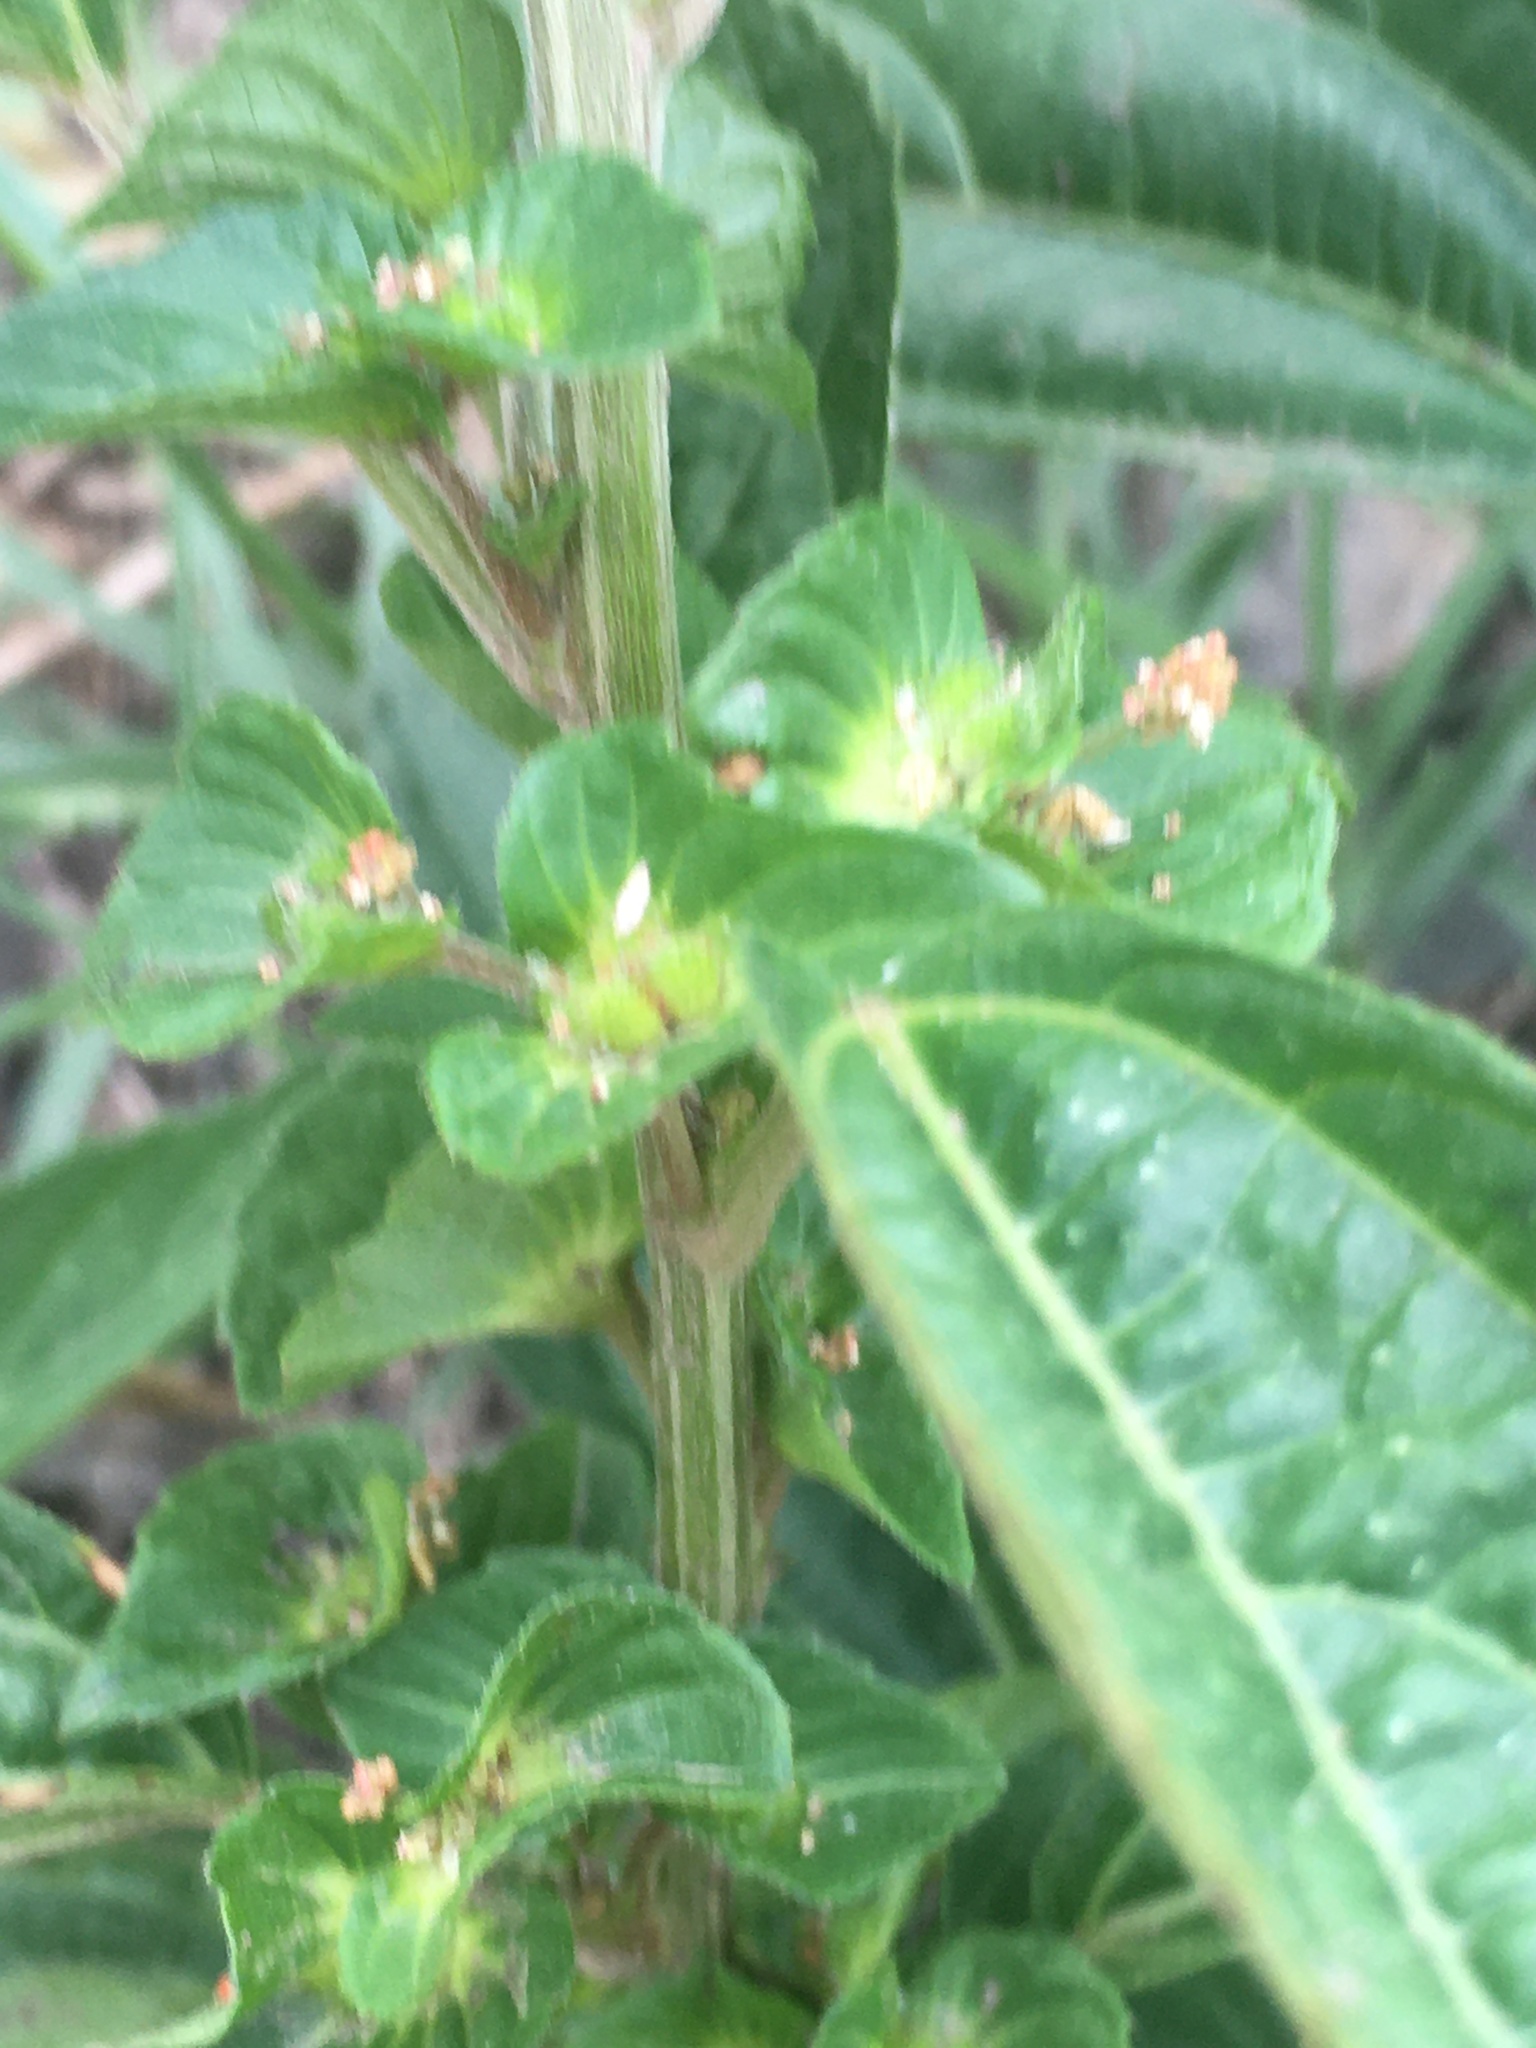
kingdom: Plantae
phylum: Tracheophyta
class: Magnoliopsida
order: Malpighiales
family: Euphorbiaceae
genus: Acalypha
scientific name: Acalypha australis
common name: Asian copperleaf
